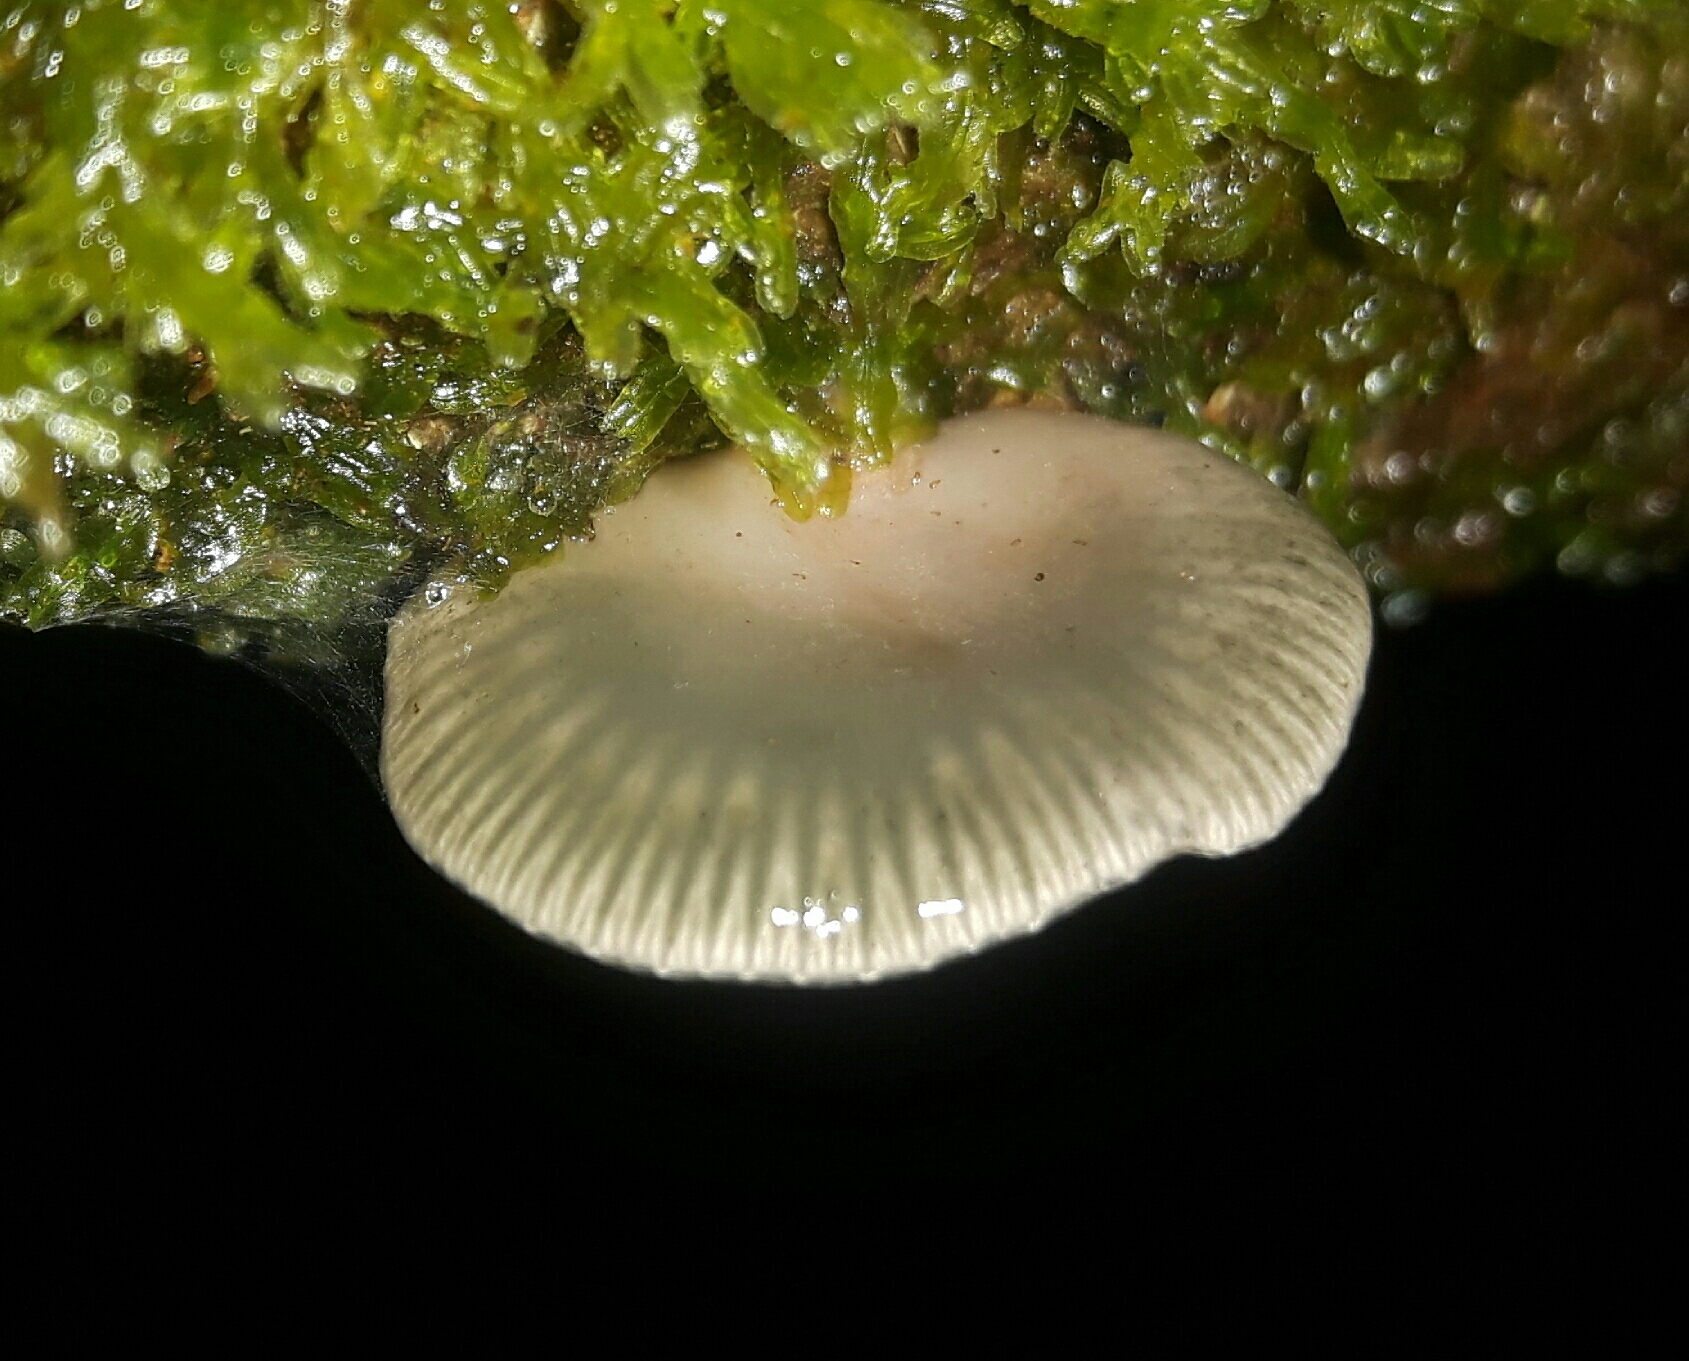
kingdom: Fungi
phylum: Basidiomycota
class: Agaricomycetes
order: Agaricales
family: Mycenaceae
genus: Panellus
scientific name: Panellus longinquus
